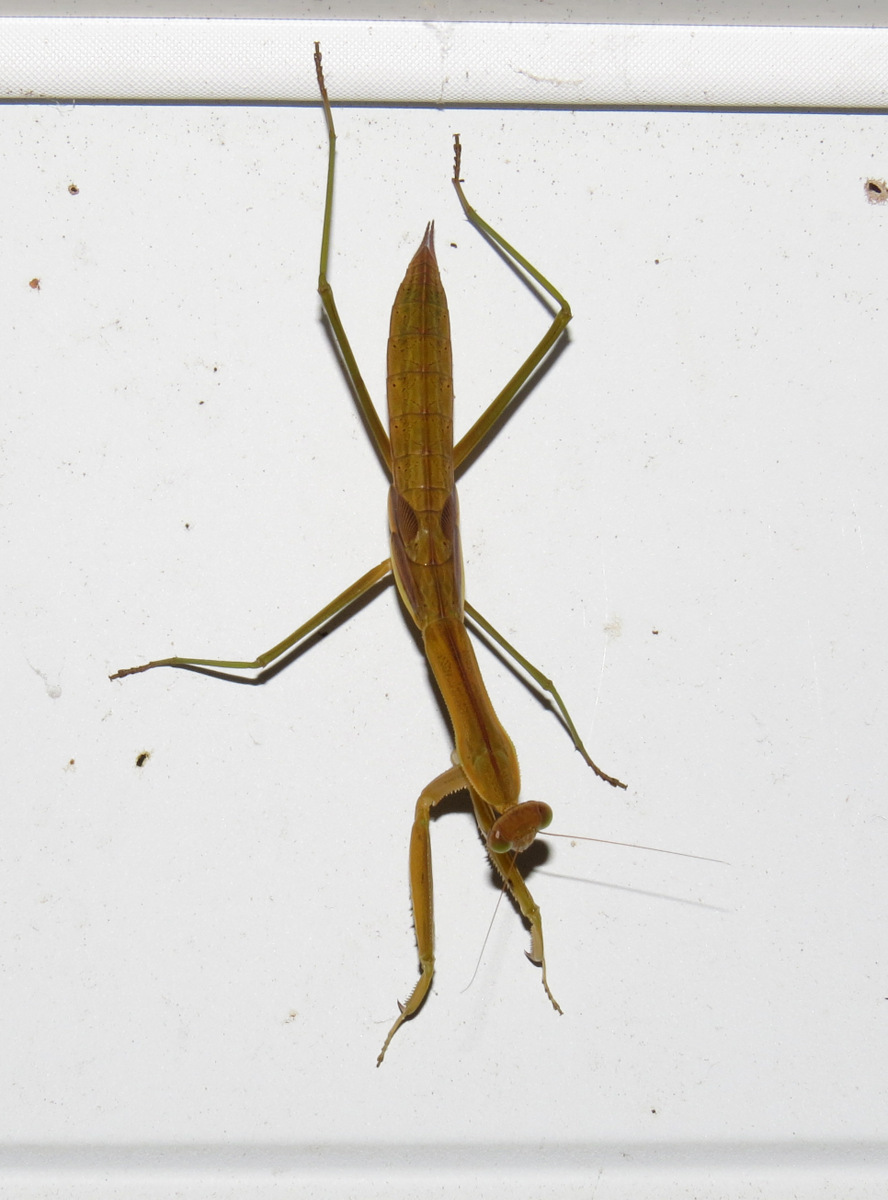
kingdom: Animalia
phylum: Arthropoda
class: Insecta
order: Mantodea
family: Mantidae
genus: Tenodera
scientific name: Tenodera sinensis
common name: Chinese mantis
